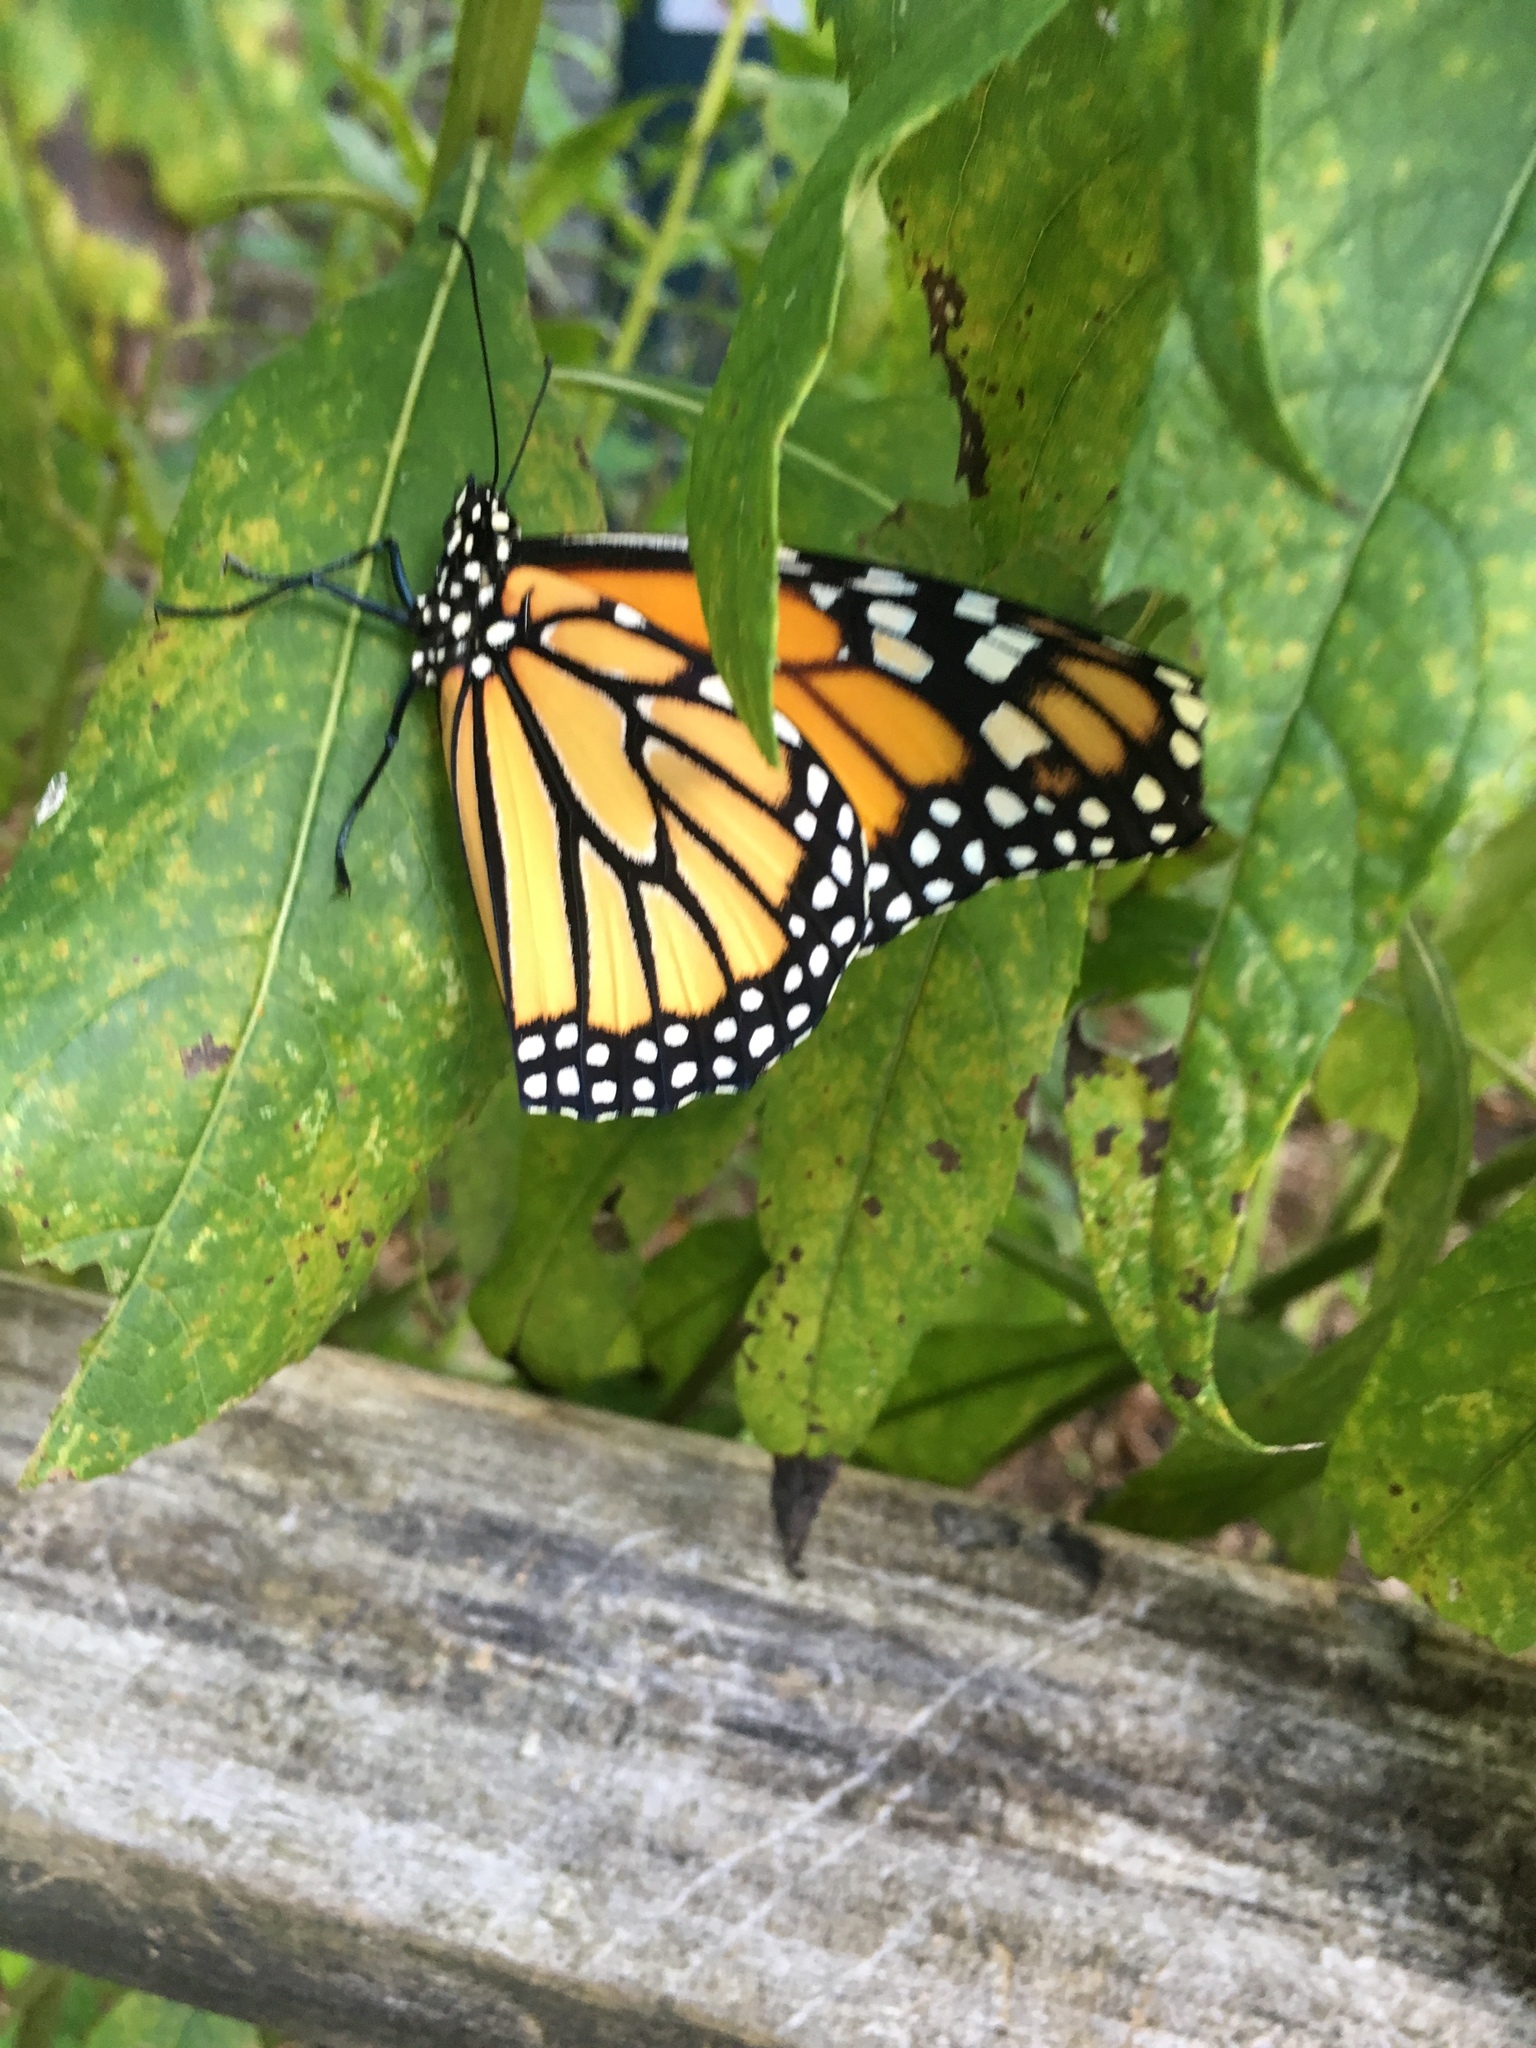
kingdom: Animalia
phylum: Arthropoda
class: Insecta
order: Lepidoptera
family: Nymphalidae
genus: Danaus
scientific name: Danaus plexippus
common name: Monarch
